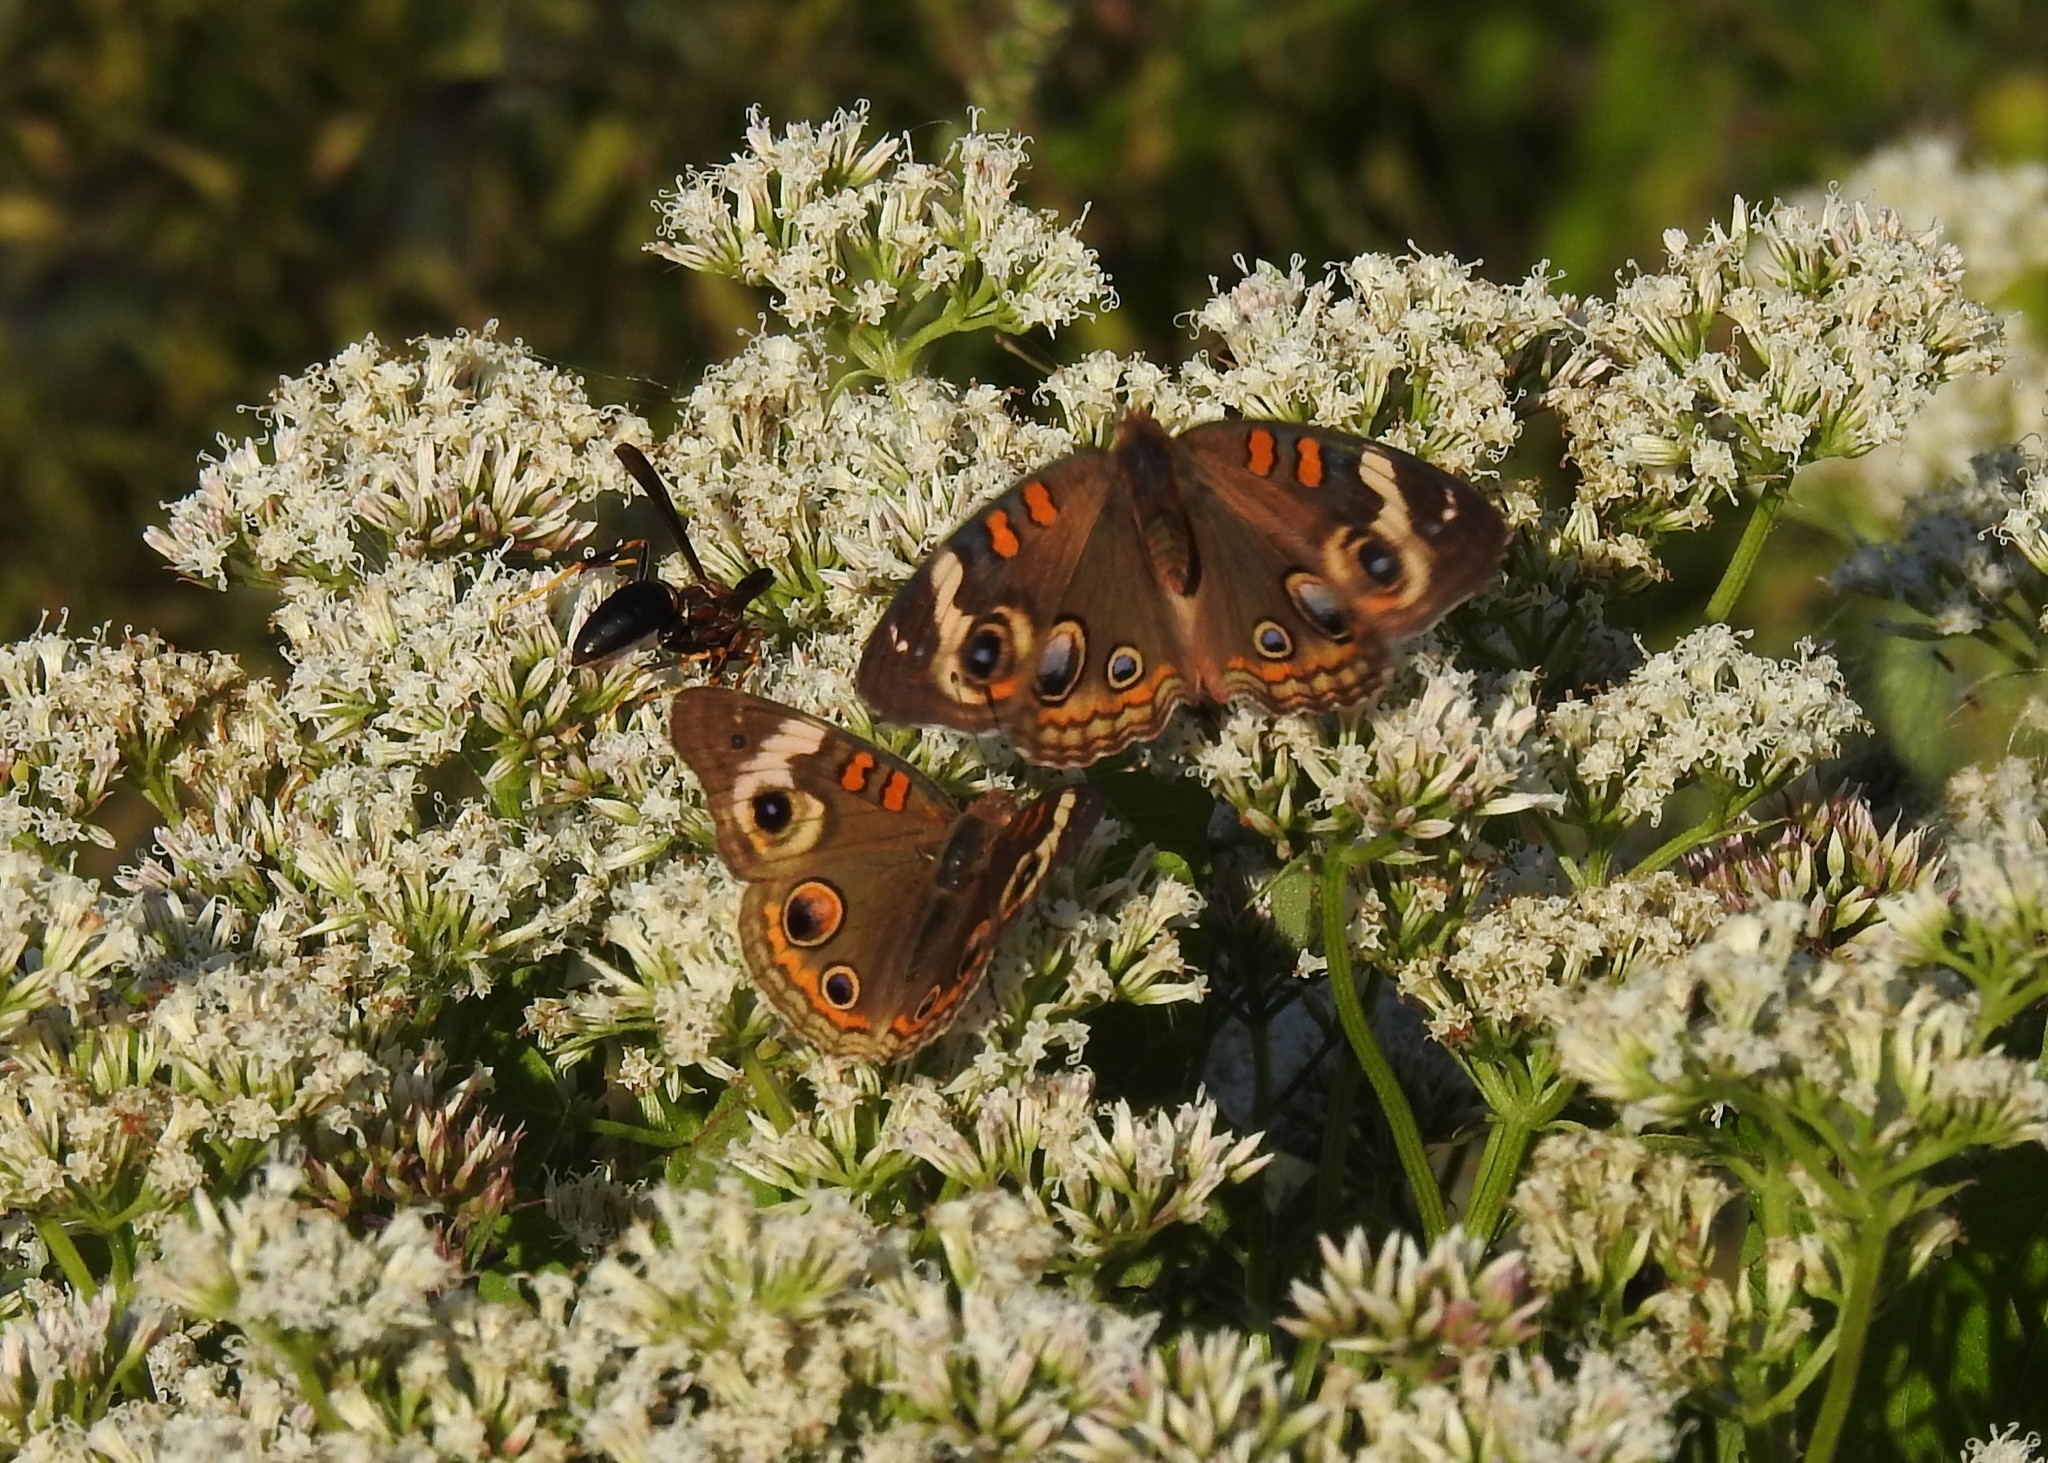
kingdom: Animalia
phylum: Arthropoda
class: Insecta
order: Lepidoptera
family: Nymphalidae
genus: Junonia
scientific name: Junonia coenia
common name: Common buckeye
